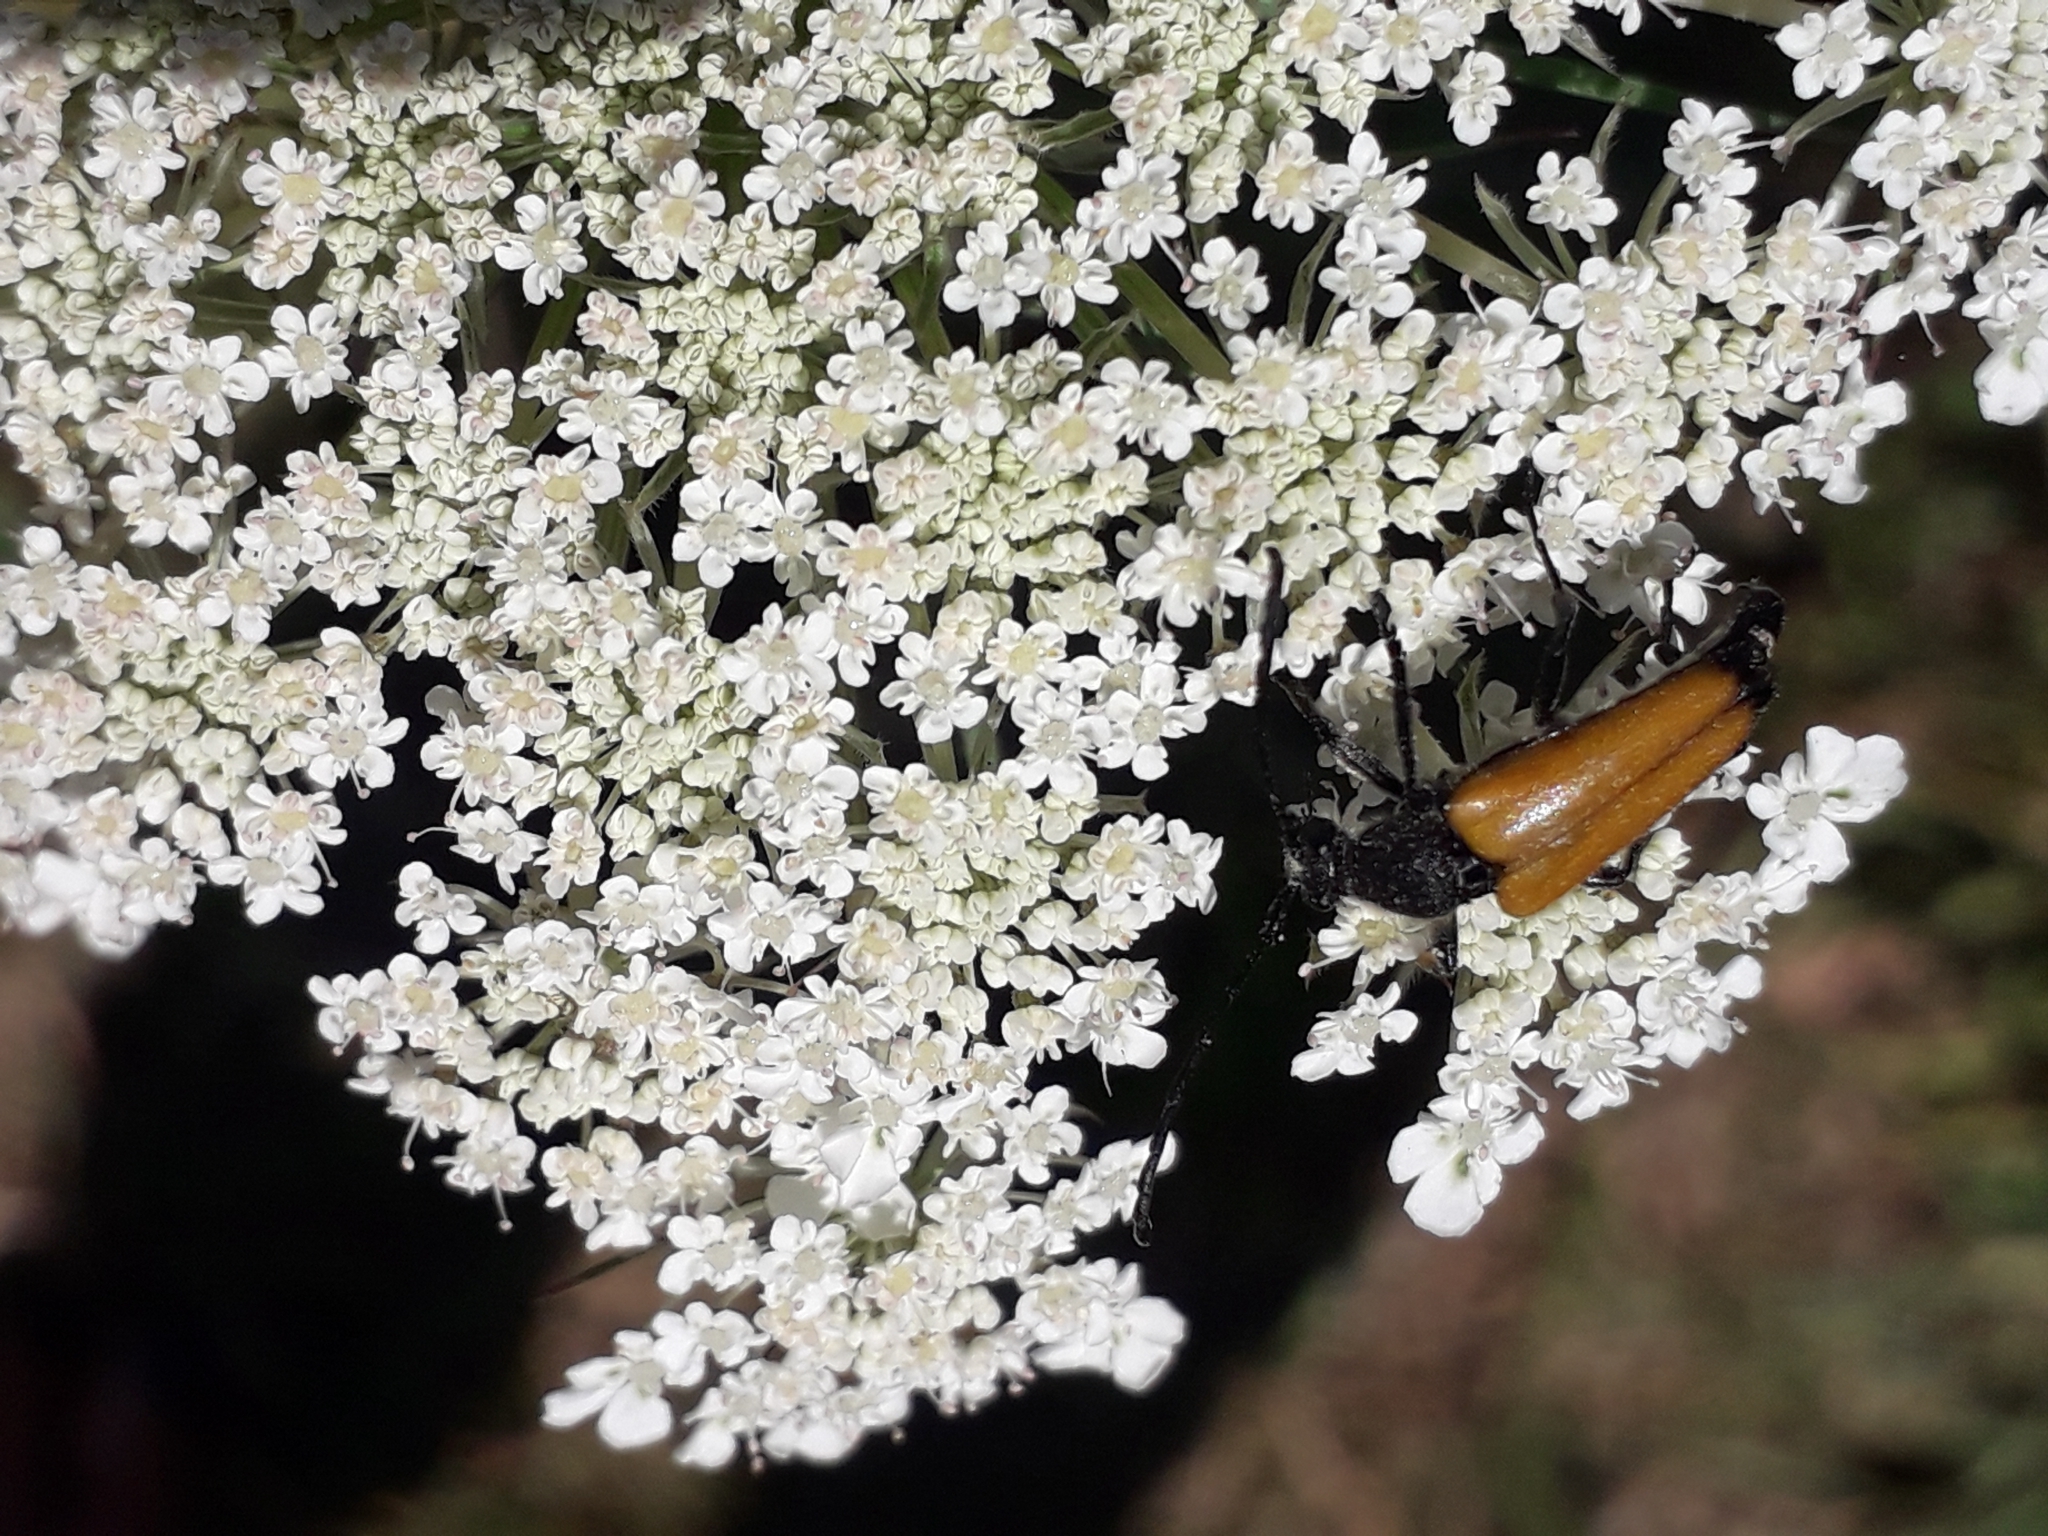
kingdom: Animalia
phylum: Arthropoda
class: Insecta
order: Coleoptera
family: Cerambycidae
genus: Paracorymbia
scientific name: Paracorymbia fulva
